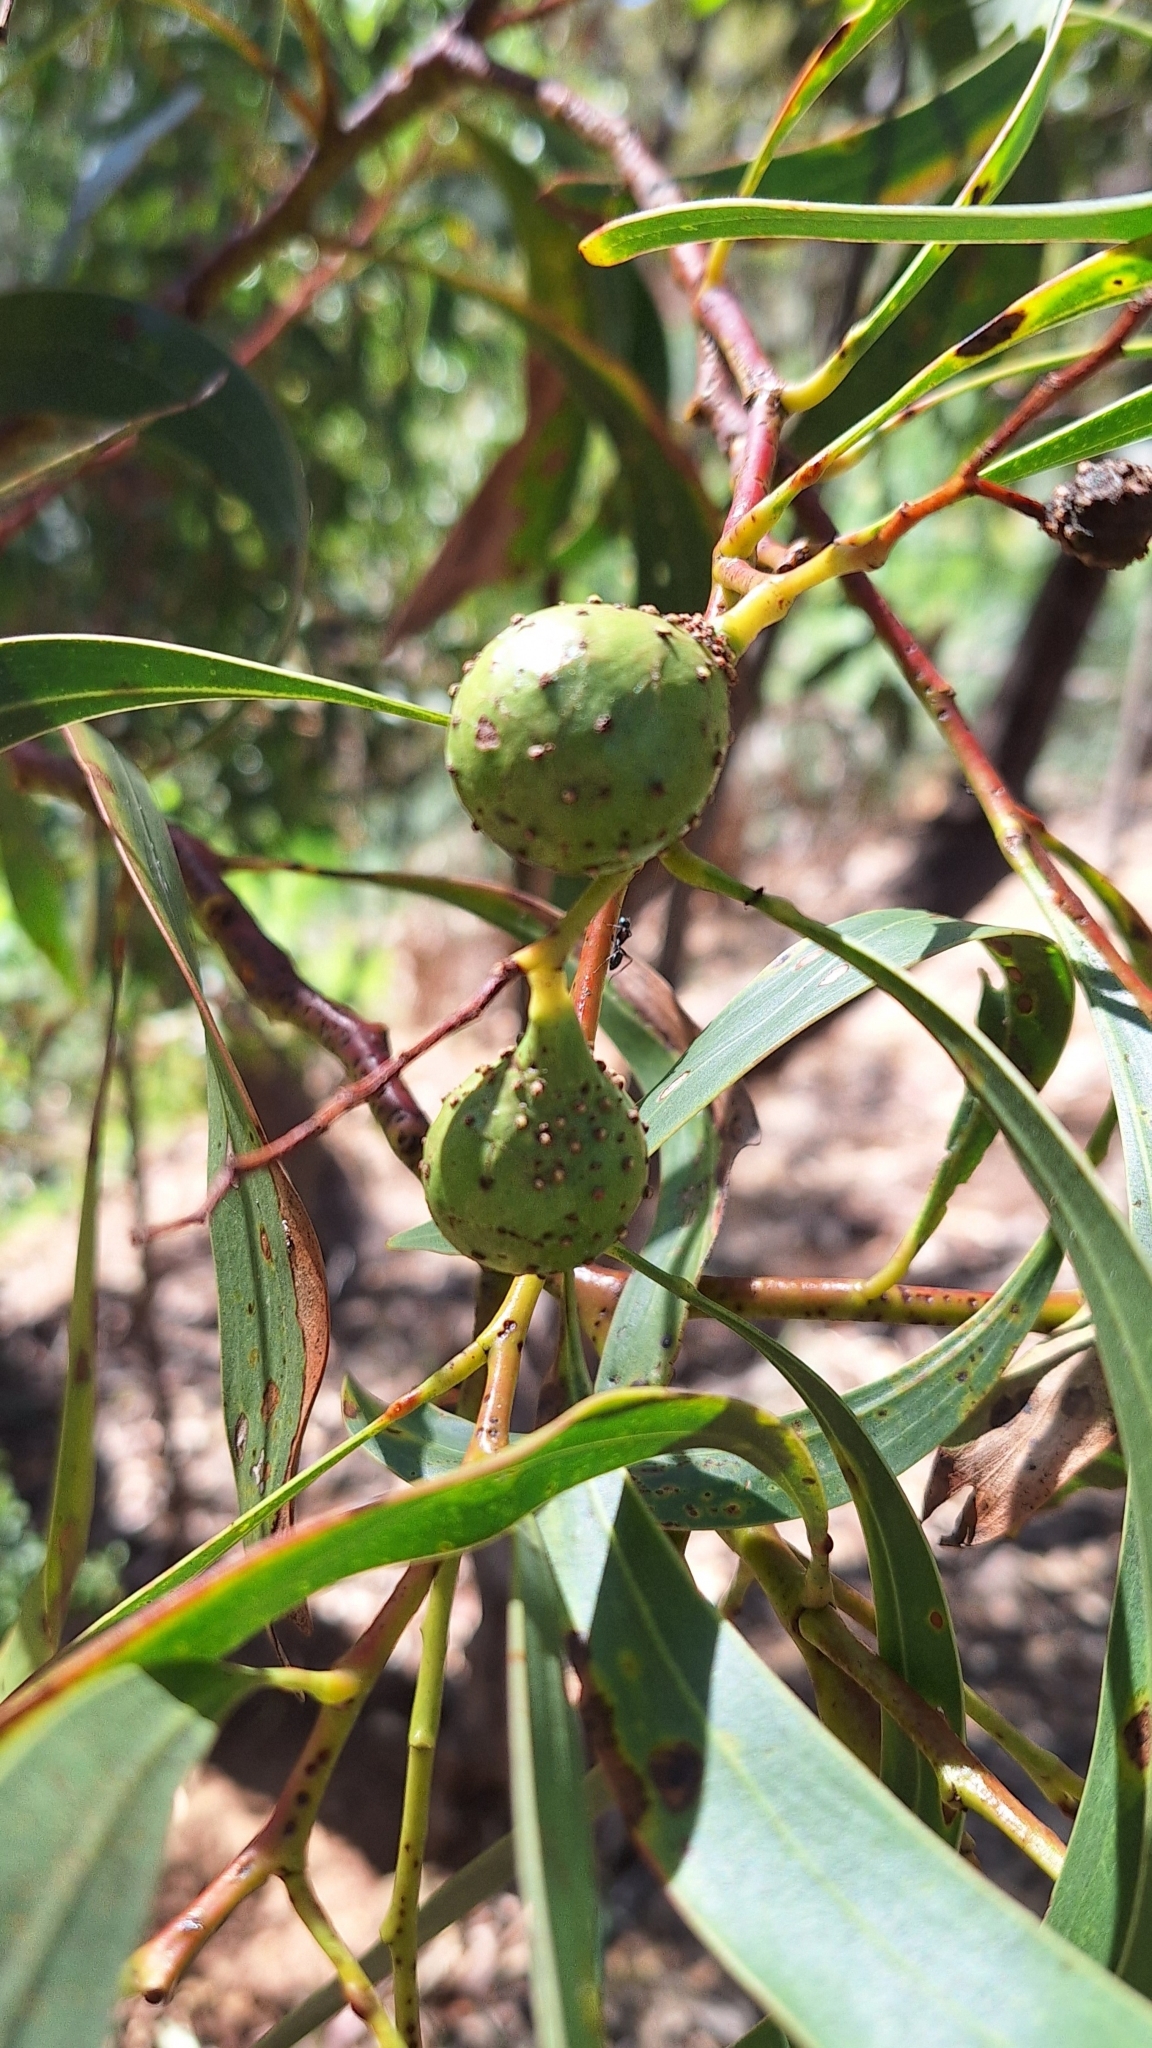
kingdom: Animalia
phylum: Arthropoda
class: Insecta
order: Hymenoptera
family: Pteromalidae
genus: Trichilogaster
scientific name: Trichilogaster signiventris
